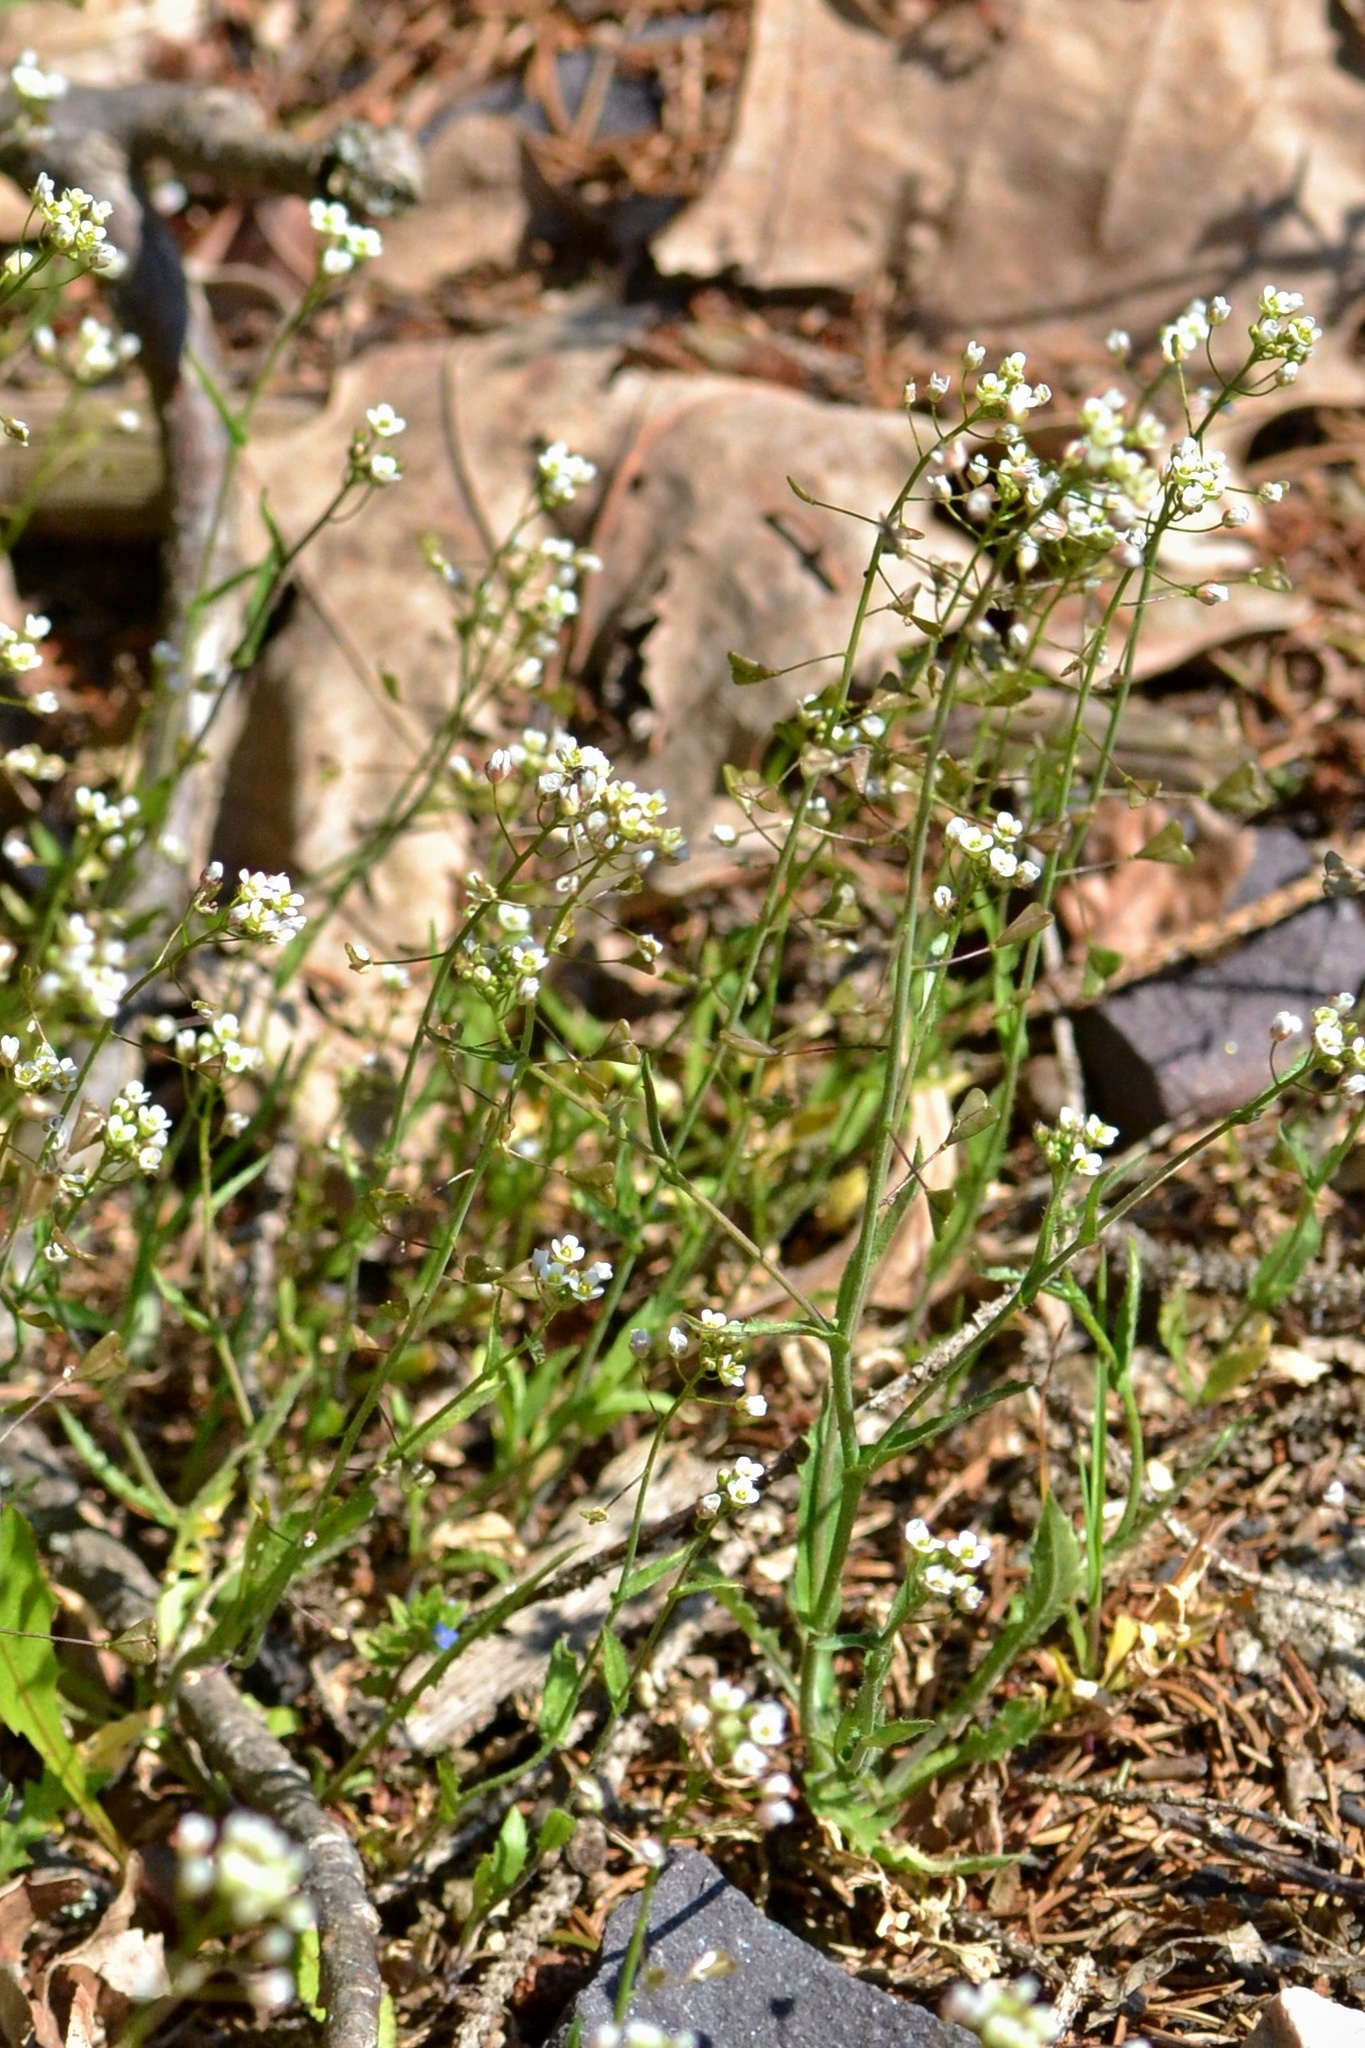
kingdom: Plantae
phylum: Tracheophyta
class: Magnoliopsida
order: Brassicales
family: Brassicaceae
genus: Capsella
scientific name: Capsella bursa-pastoris
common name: Shepherd's purse
